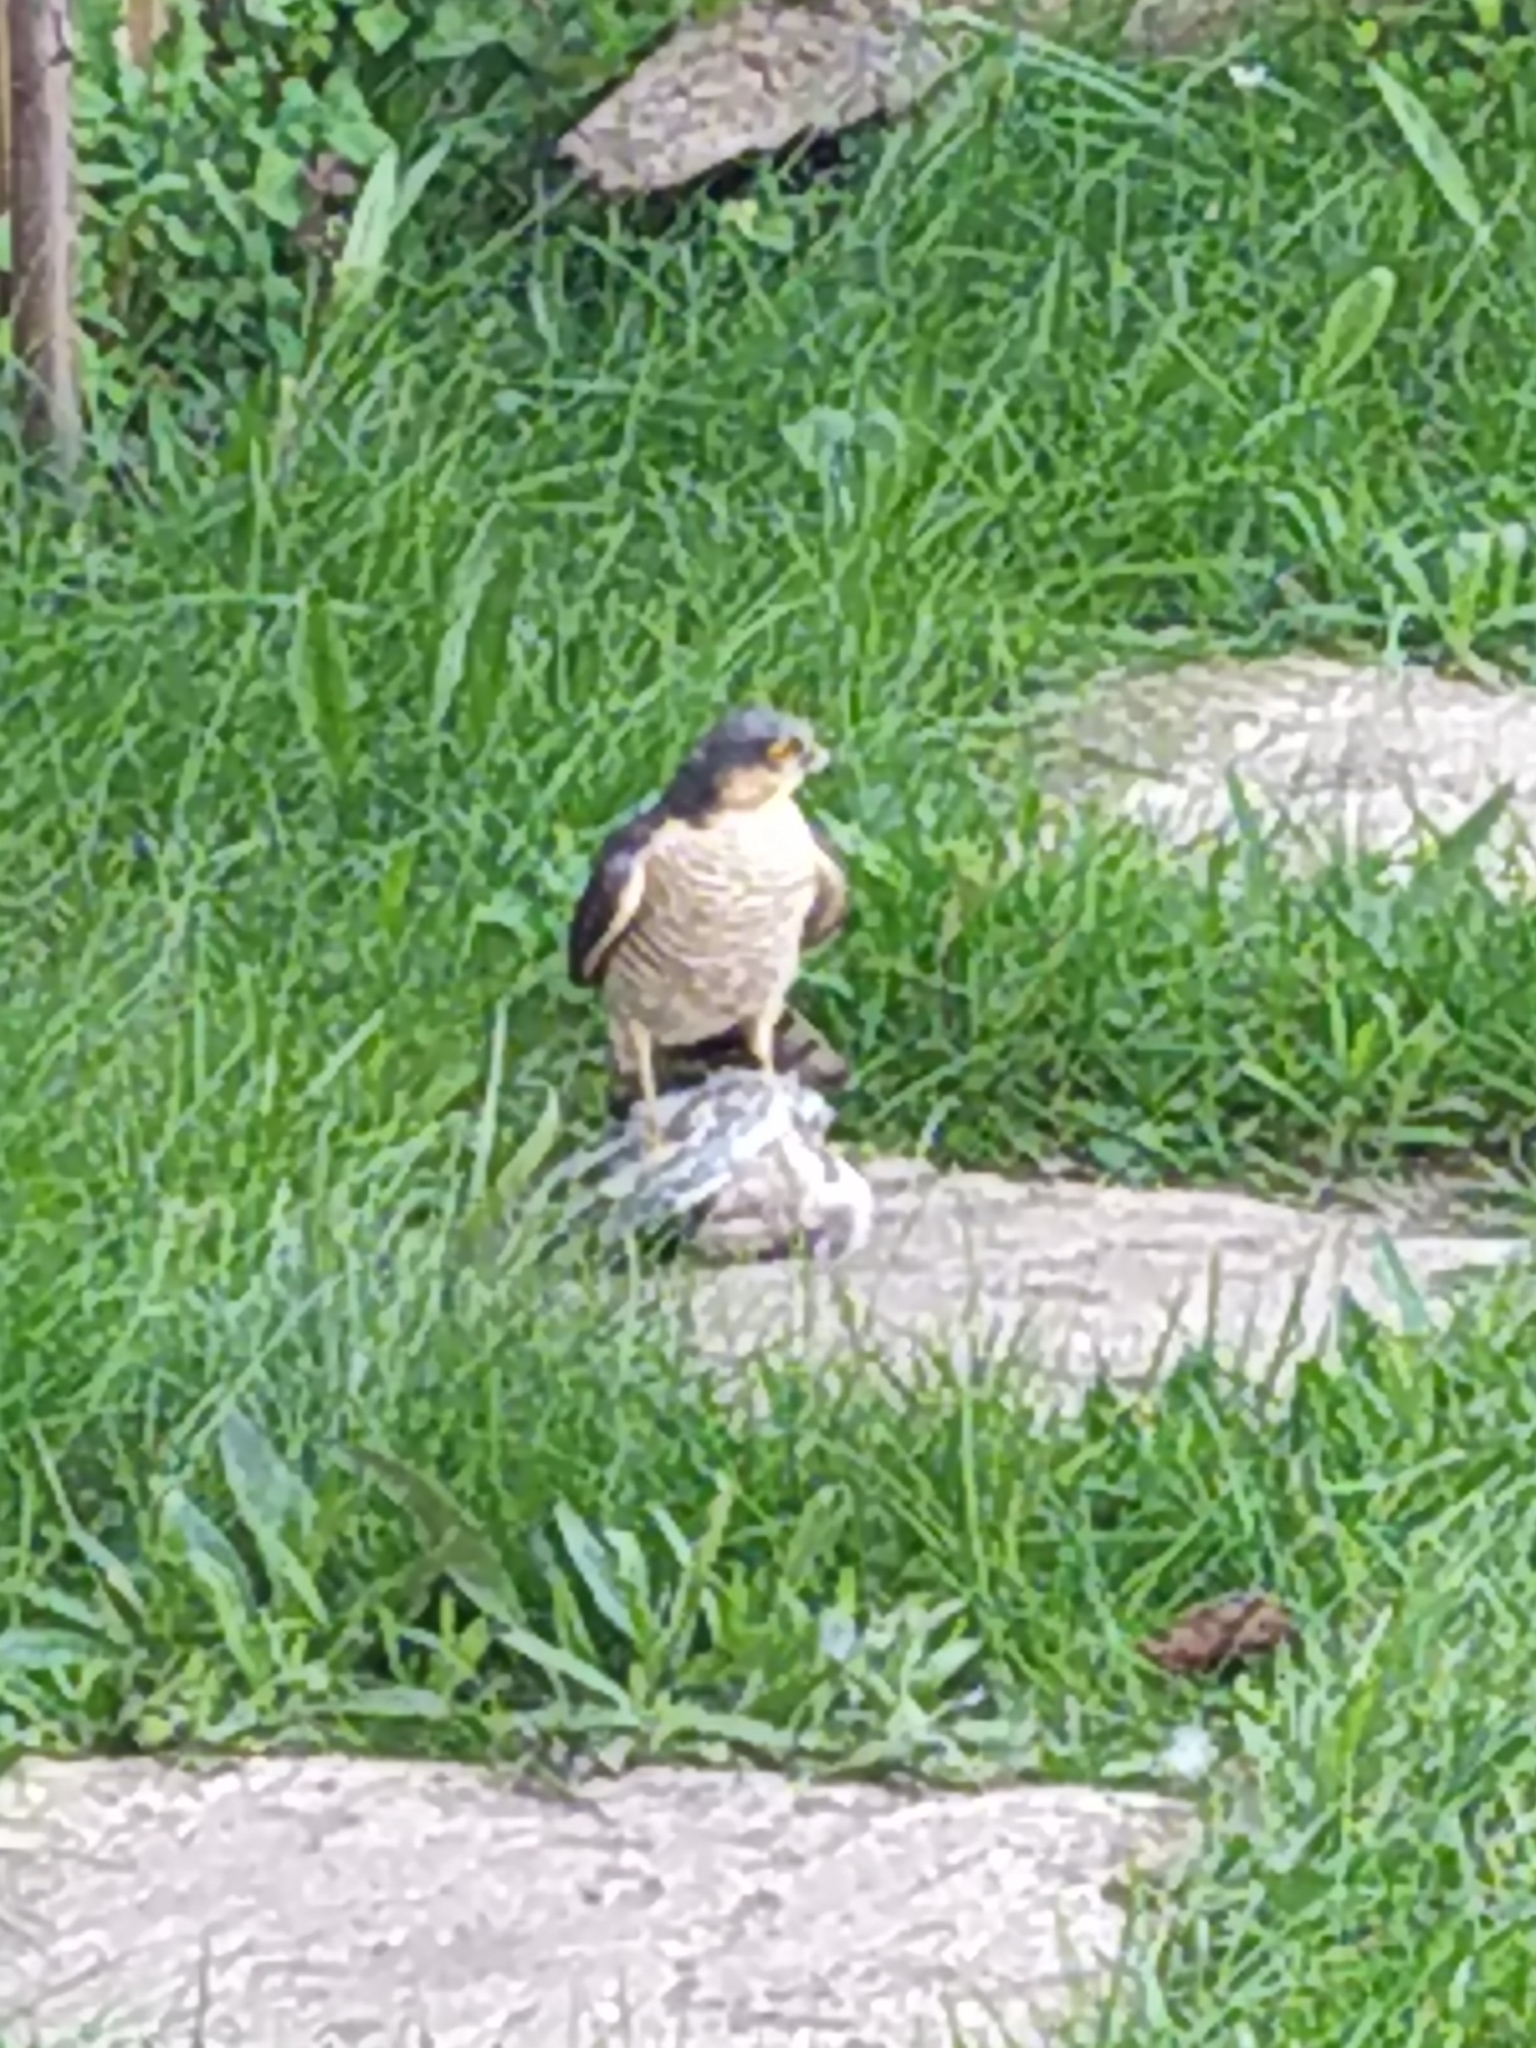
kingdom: Animalia
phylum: Chordata
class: Aves
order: Accipitriformes
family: Accipitridae
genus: Accipiter
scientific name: Accipiter nisus
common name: Eurasian sparrowhawk
